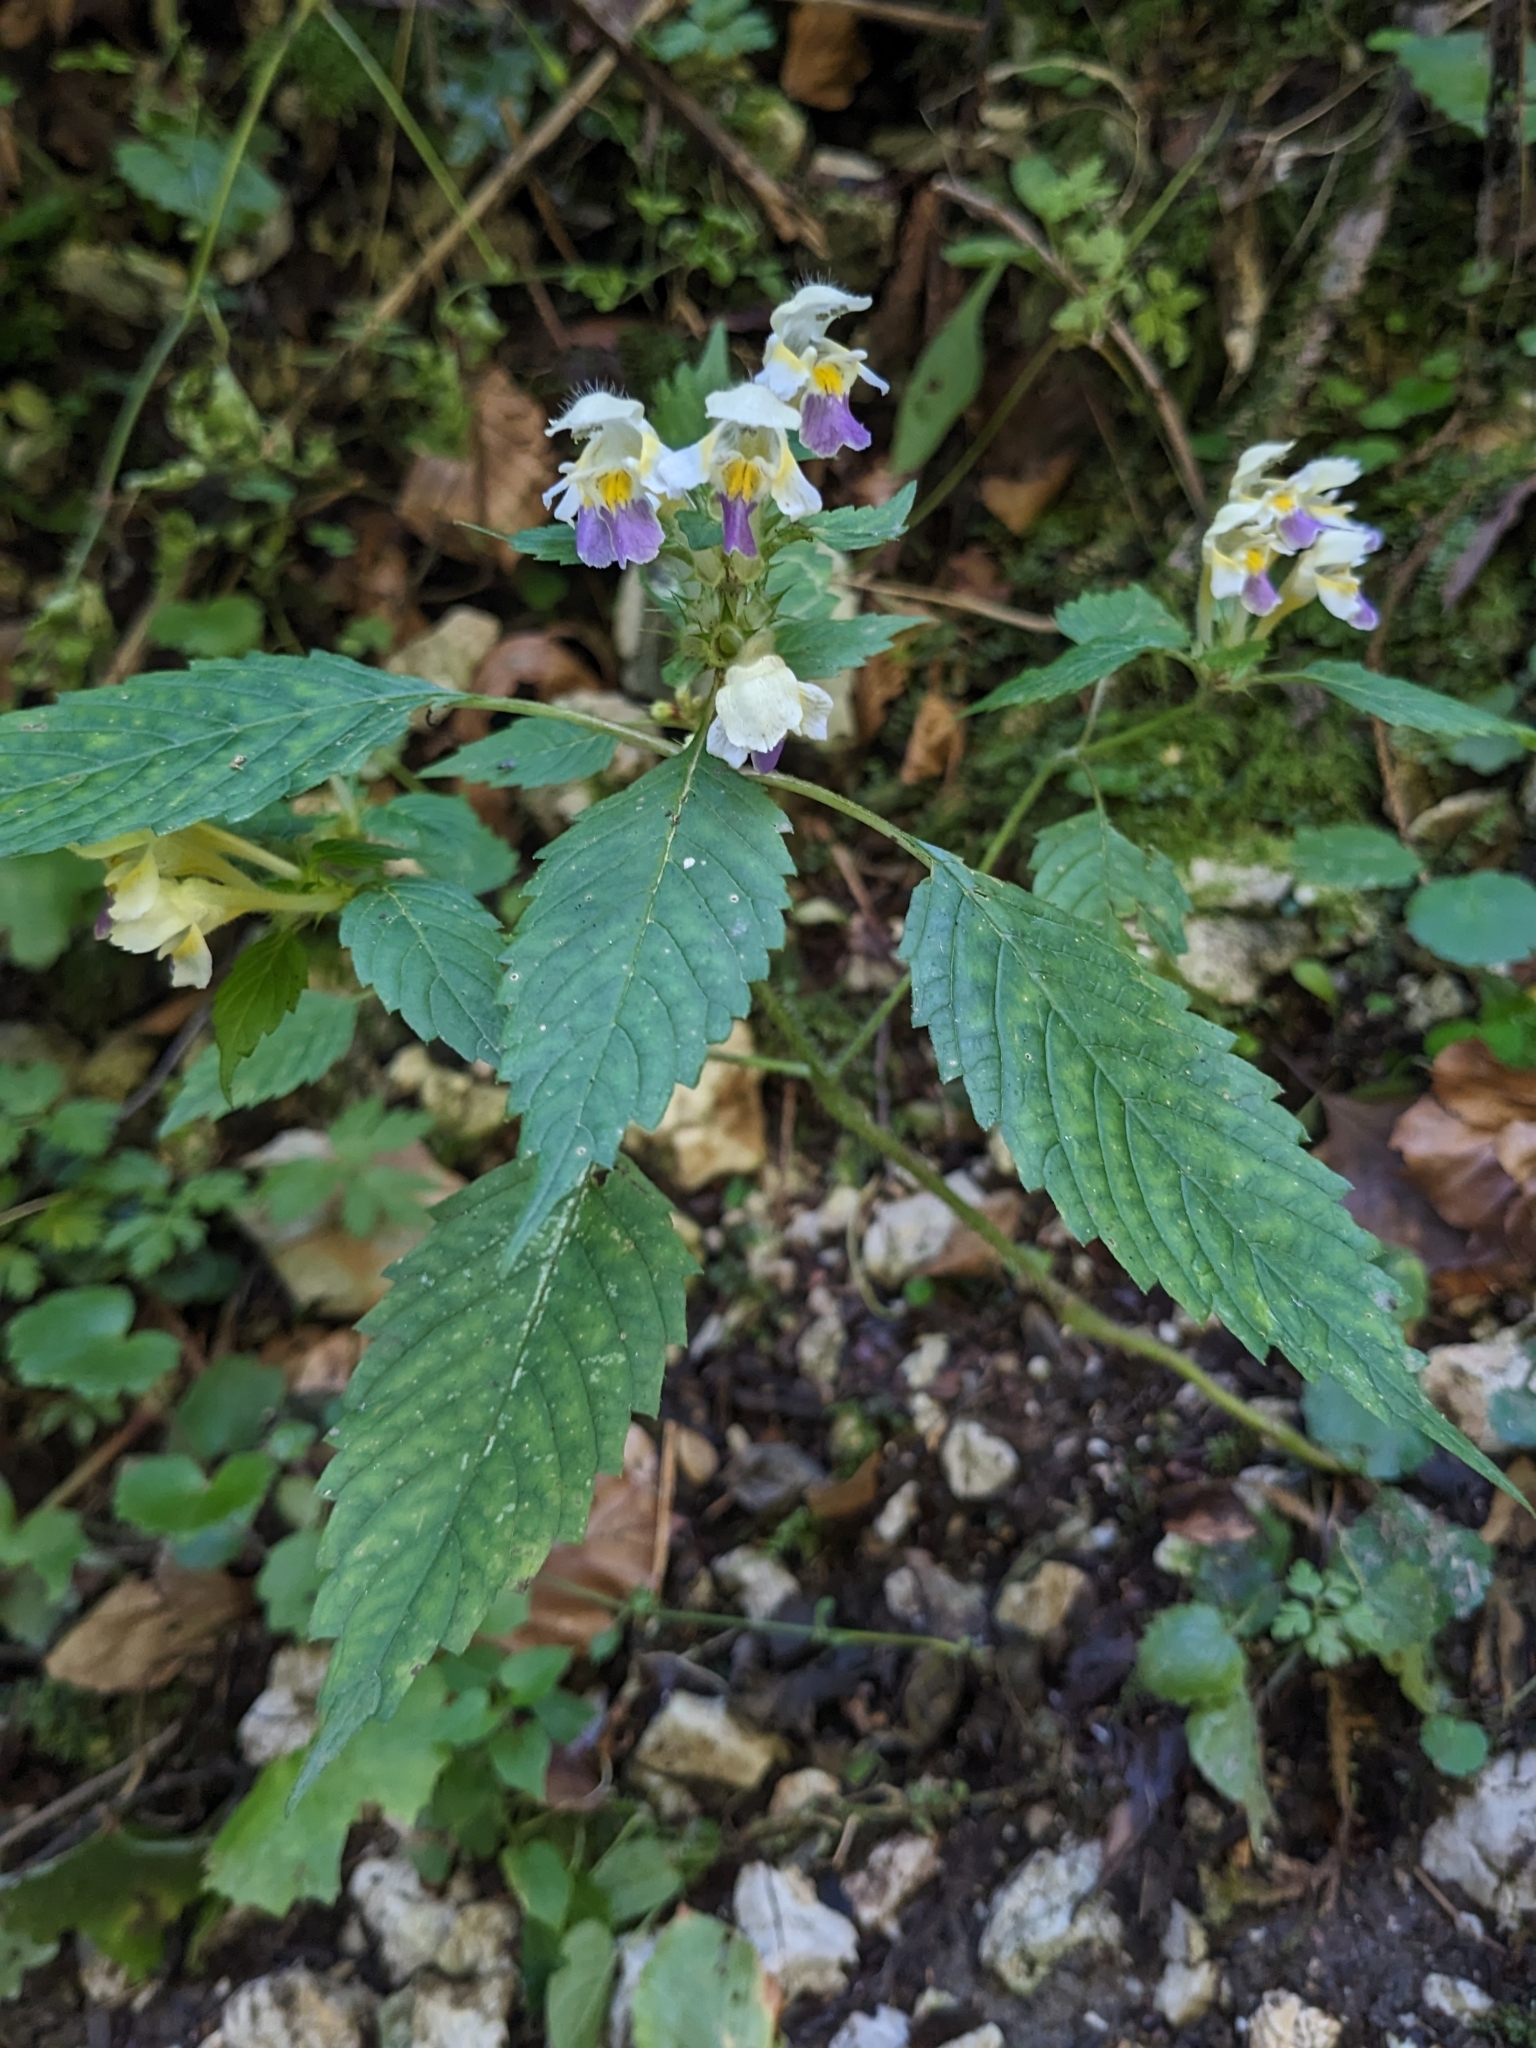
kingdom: Plantae
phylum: Tracheophyta
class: Magnoliopsida
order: Lamiales
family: Lamiaceae
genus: Galeopsis
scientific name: Galeopsis speciosa
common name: Large-flowered hemp-nettle
